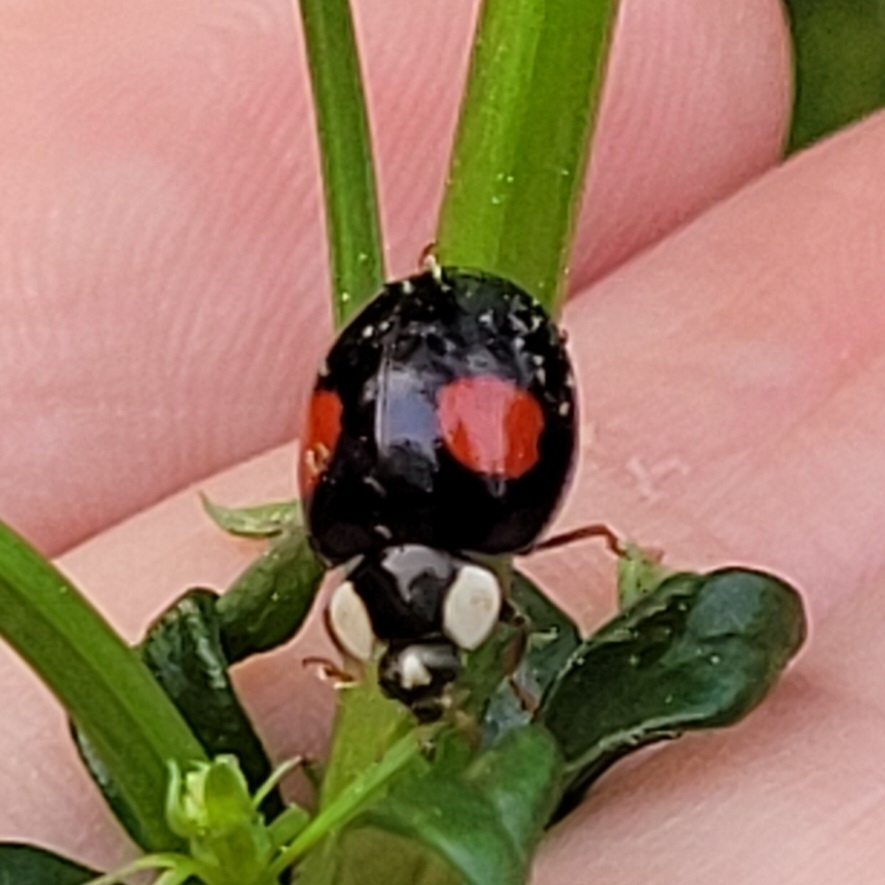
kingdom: Animalia
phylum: Arthropoda
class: Insecta
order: Coleoptera
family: Coccinellidae
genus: Harmonia
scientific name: Harmonia axyridis
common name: Harlequin ladybird
